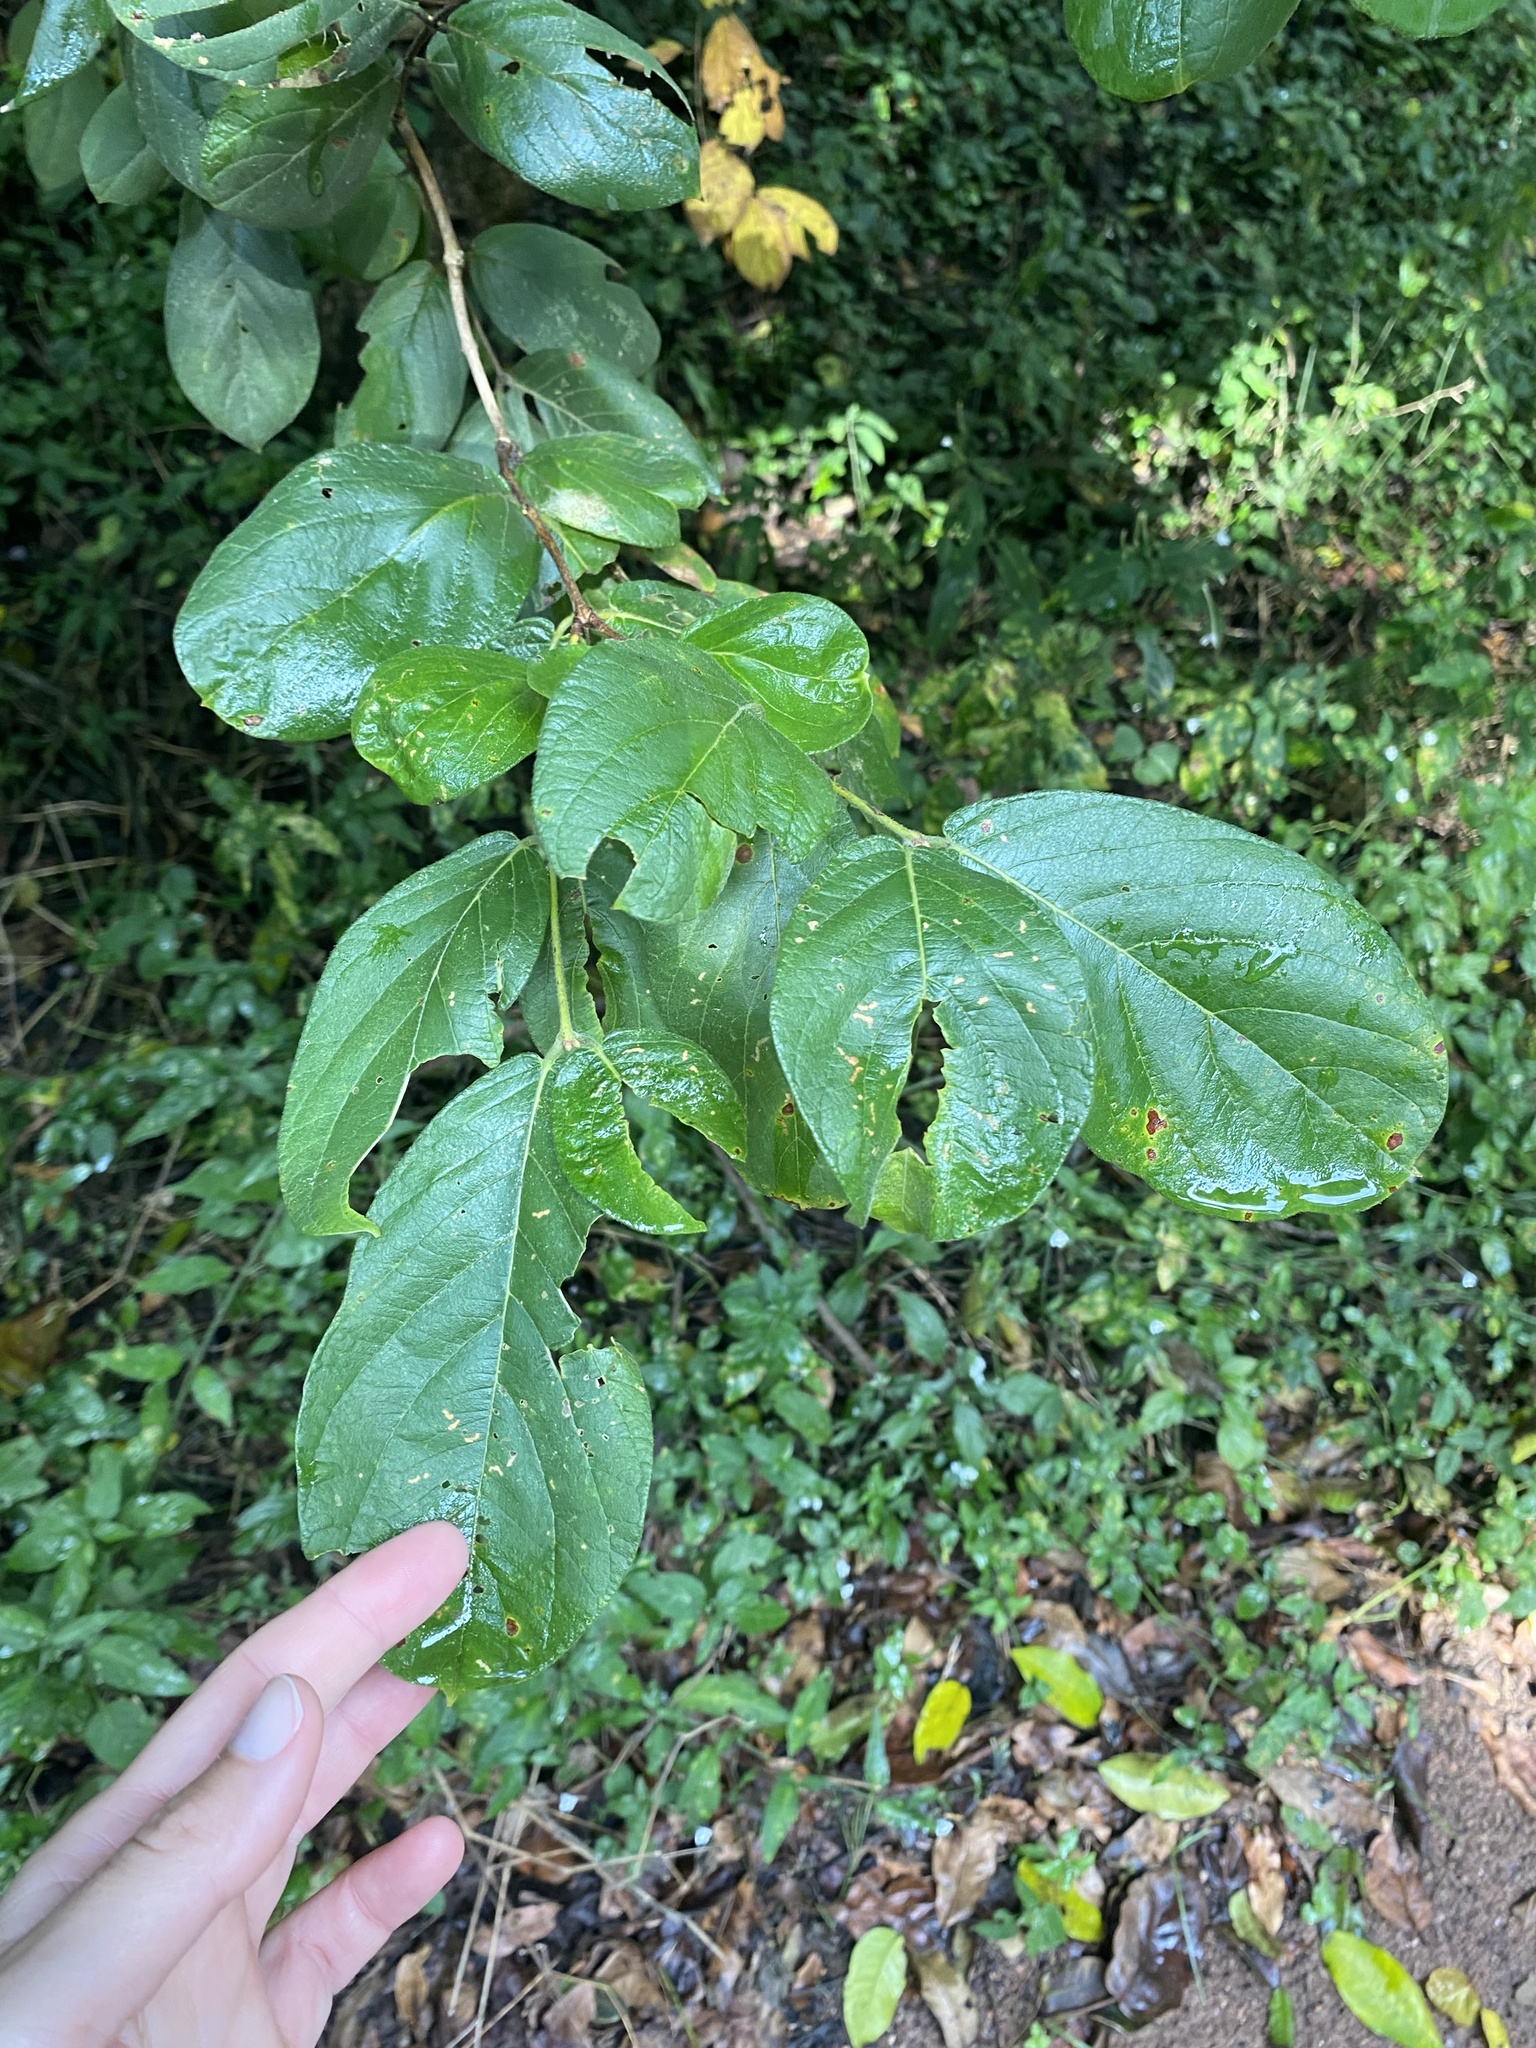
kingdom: Plantae
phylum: Tracheophyta
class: Magnoliopsida
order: Myrtales
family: Combretaceae
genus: Combretum
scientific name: Combretum molle
